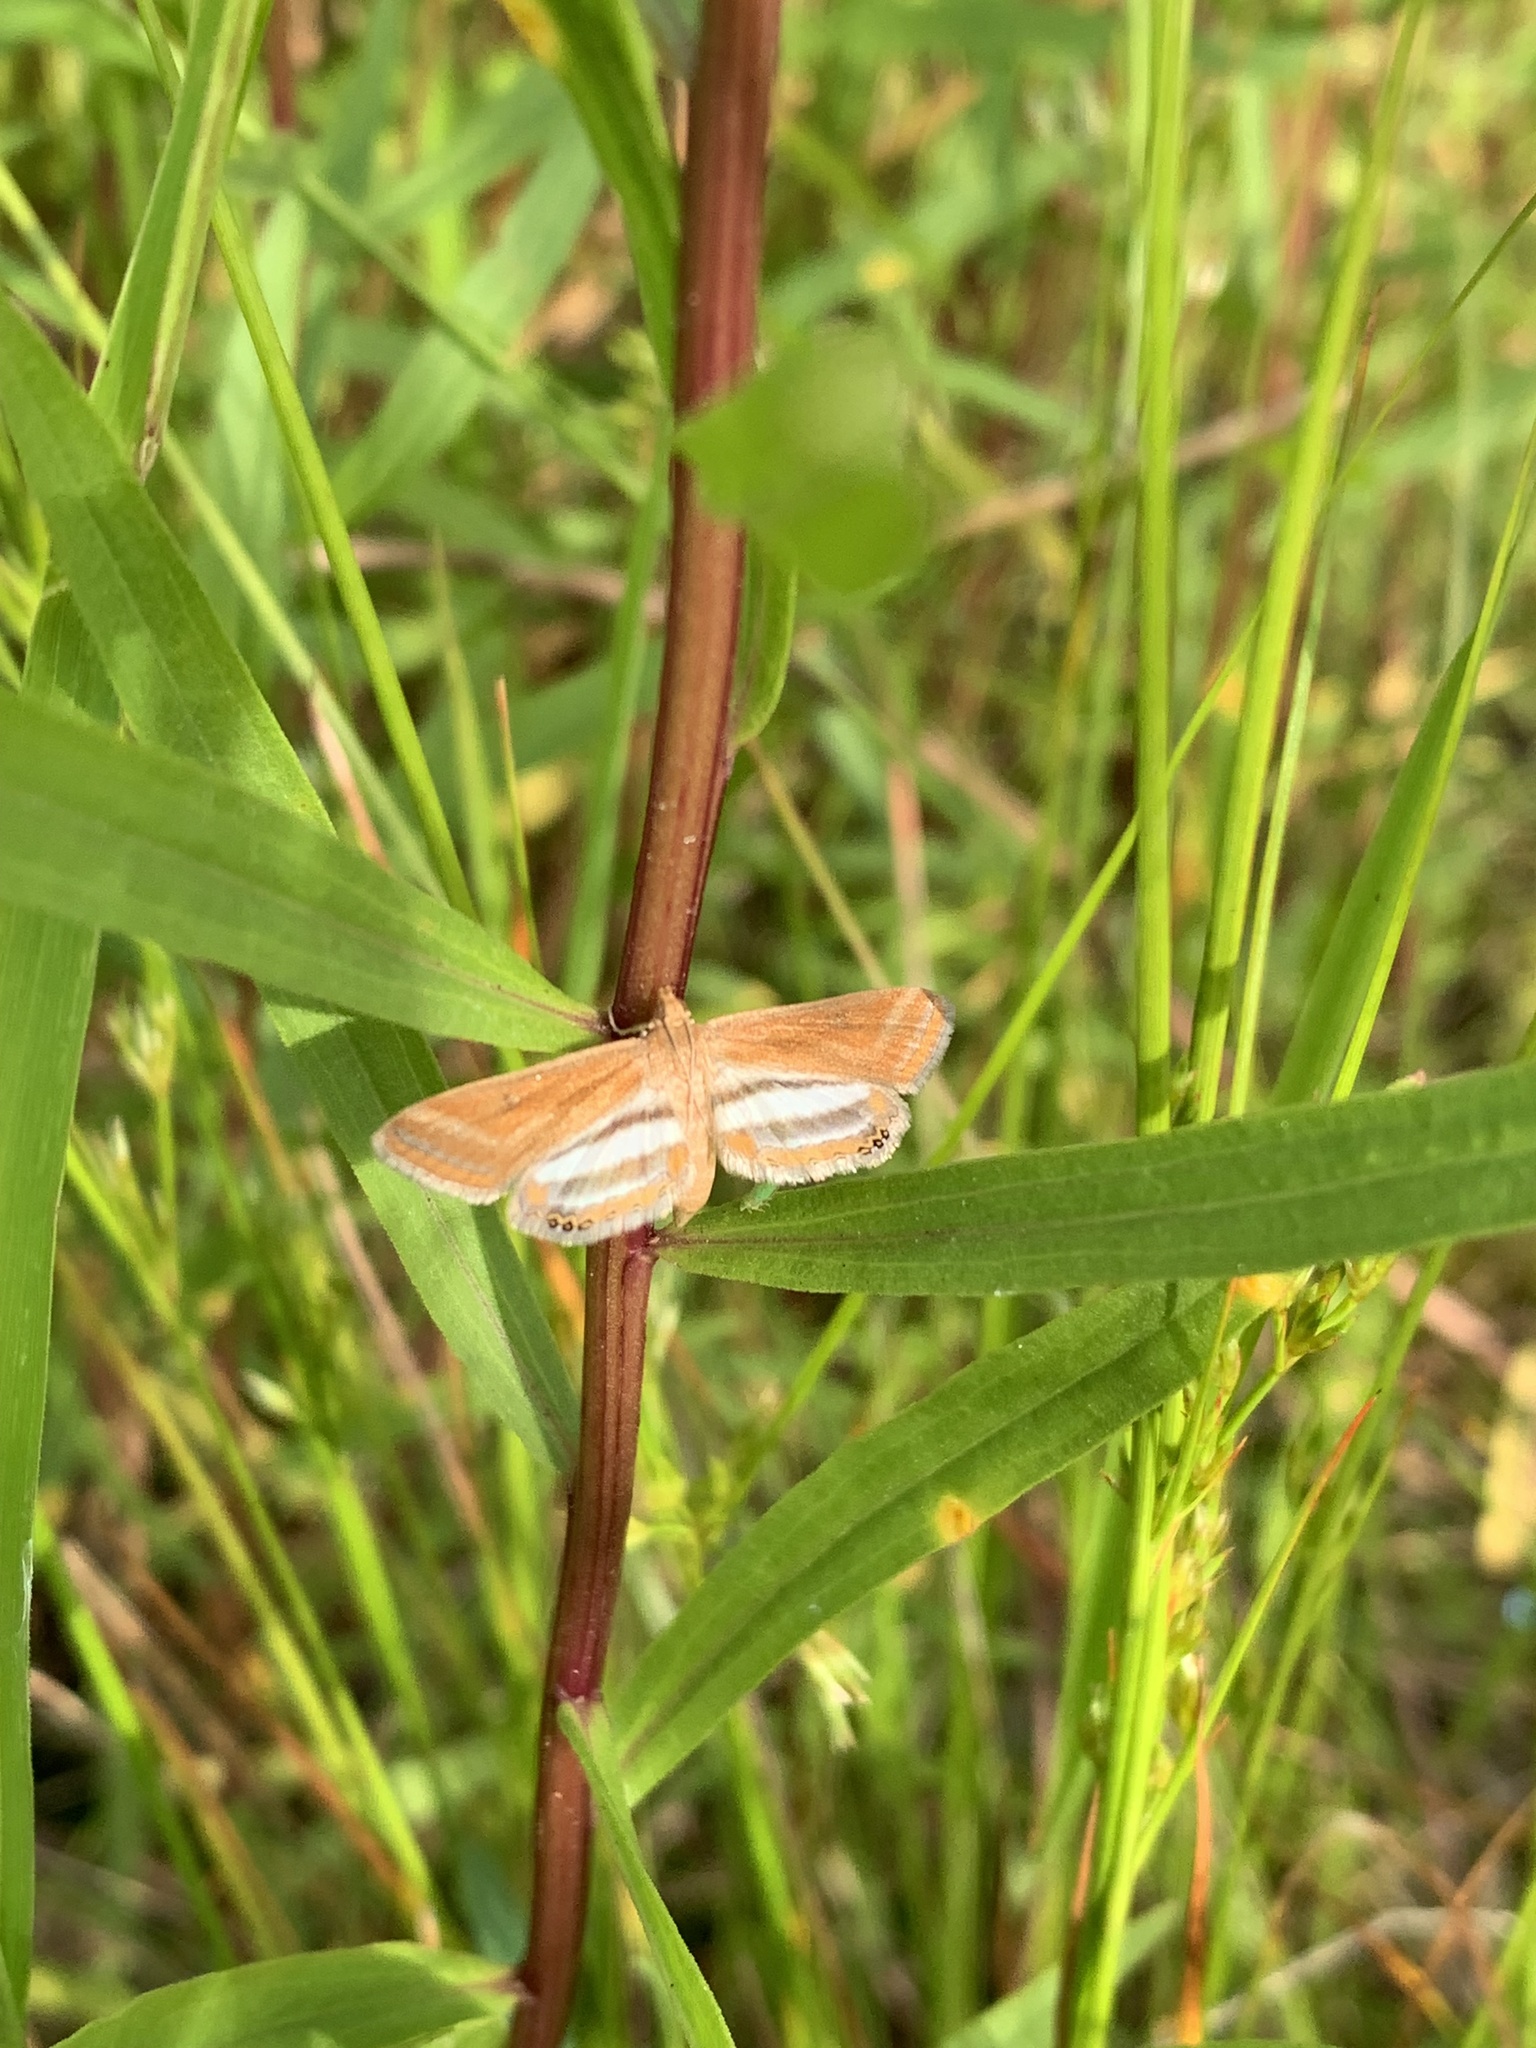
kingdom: Animalia
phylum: Arthropoda
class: Insecta
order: Lepidoptera
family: Crambidae
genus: Parapoynx
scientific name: Parapoynx seminealis
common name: Floating-heart waterlily leafcutter
